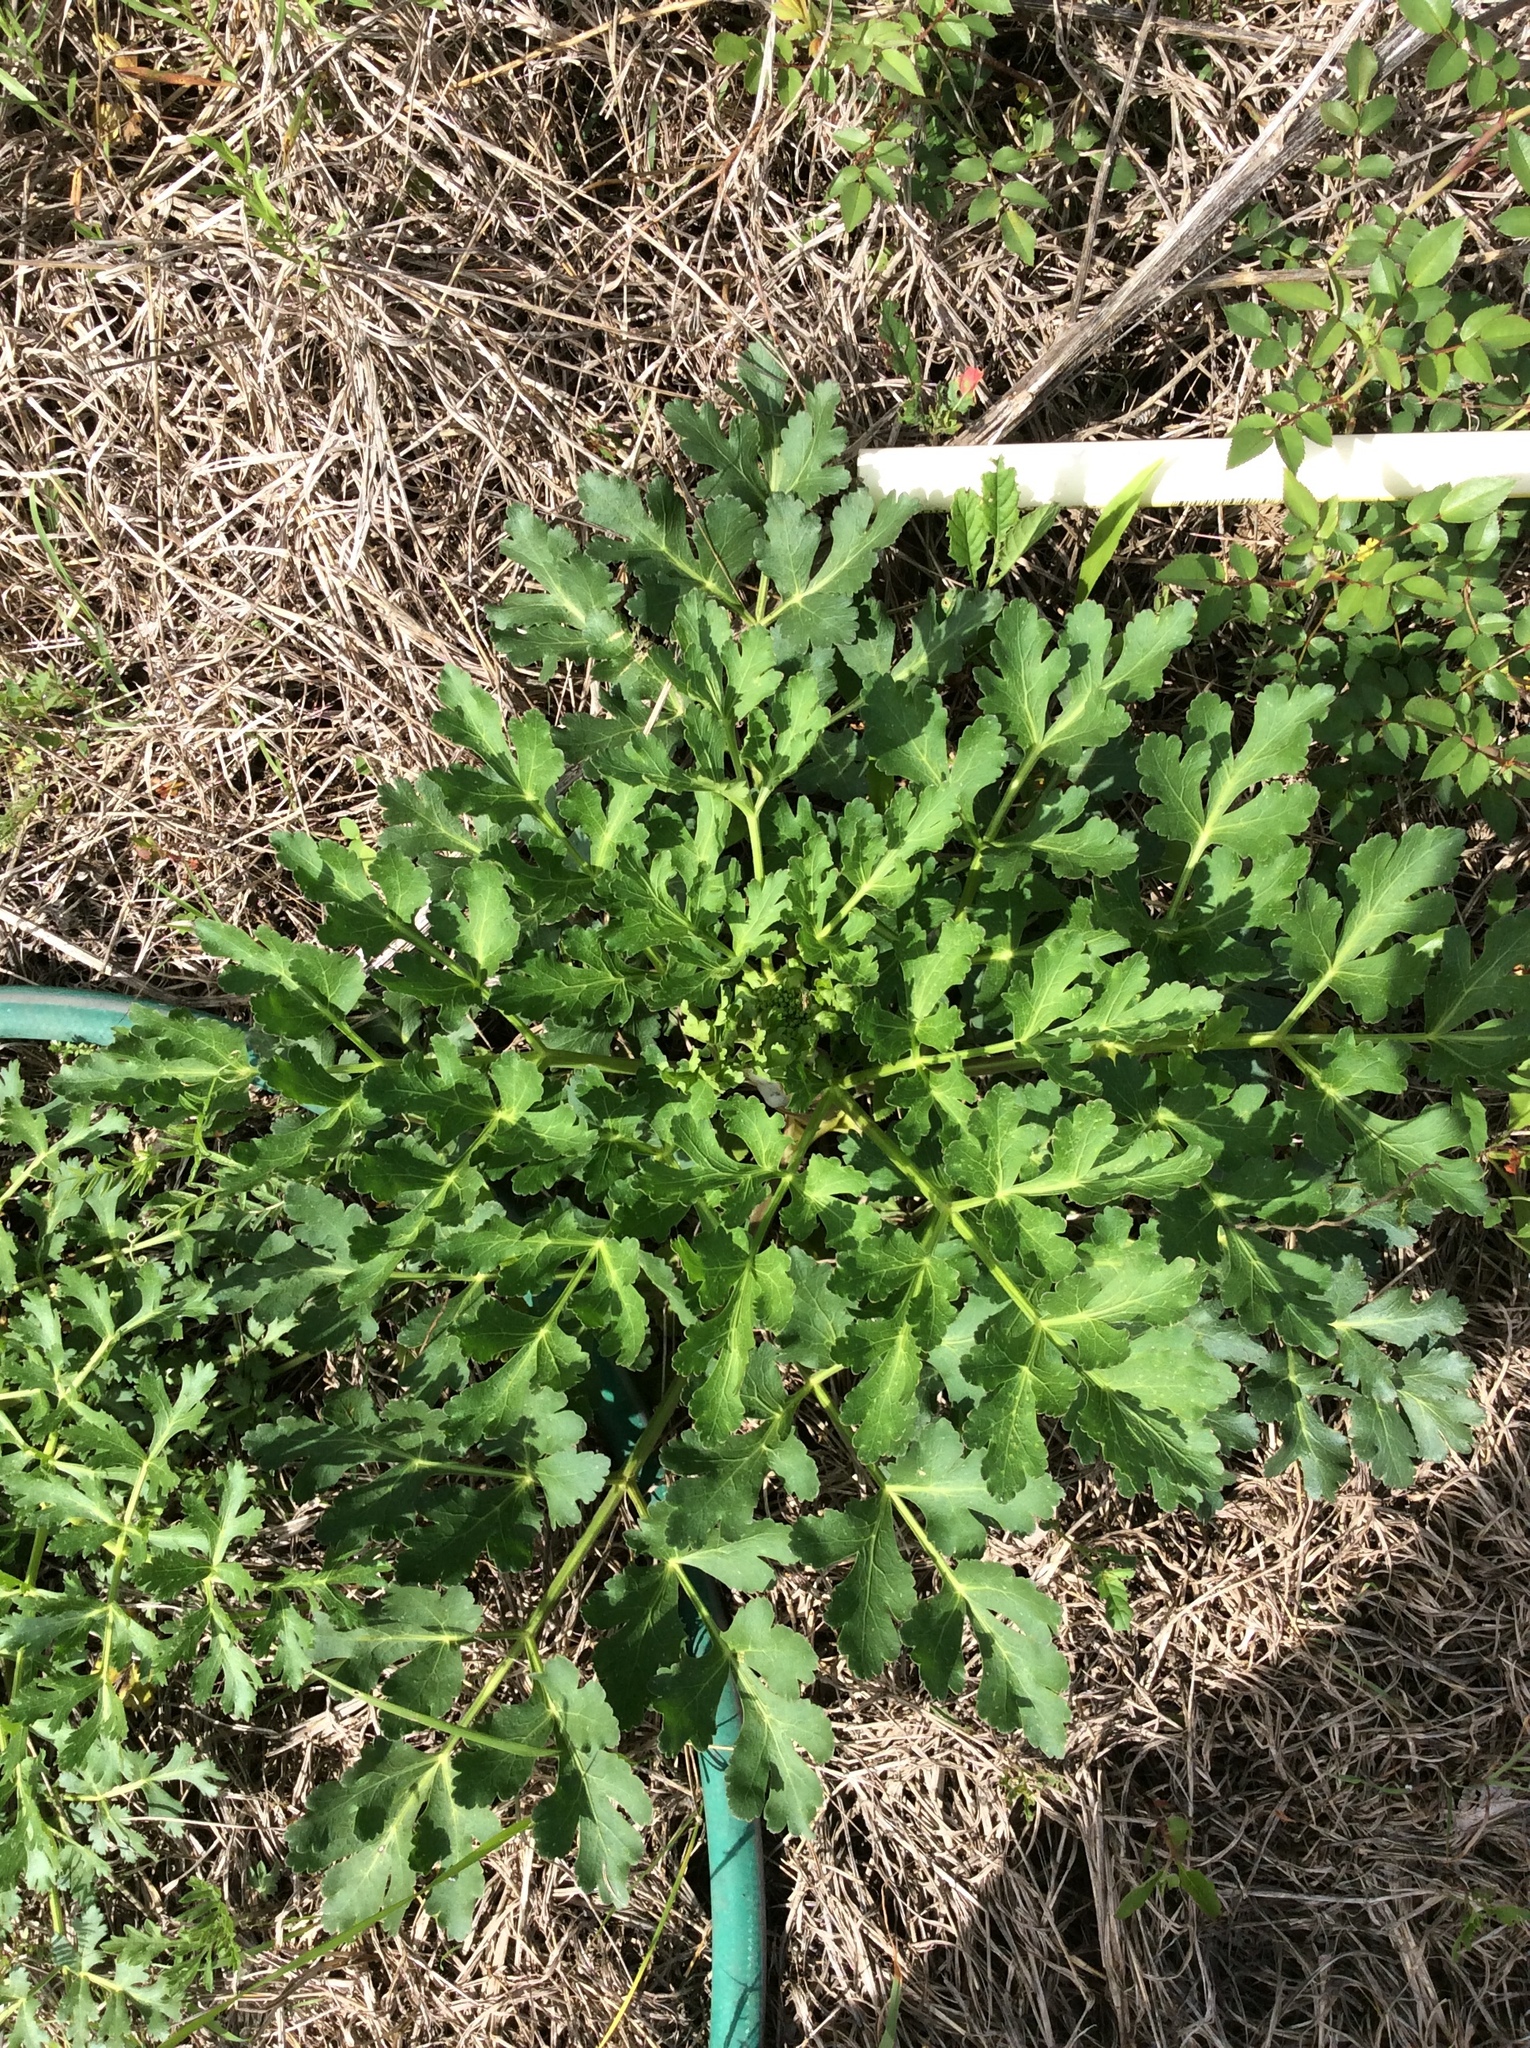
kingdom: Plantae
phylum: Tracheophyta
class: Magnoliopsida
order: Apiales
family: Apiaceae
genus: Polytaenia
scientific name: Polytaenia texana
